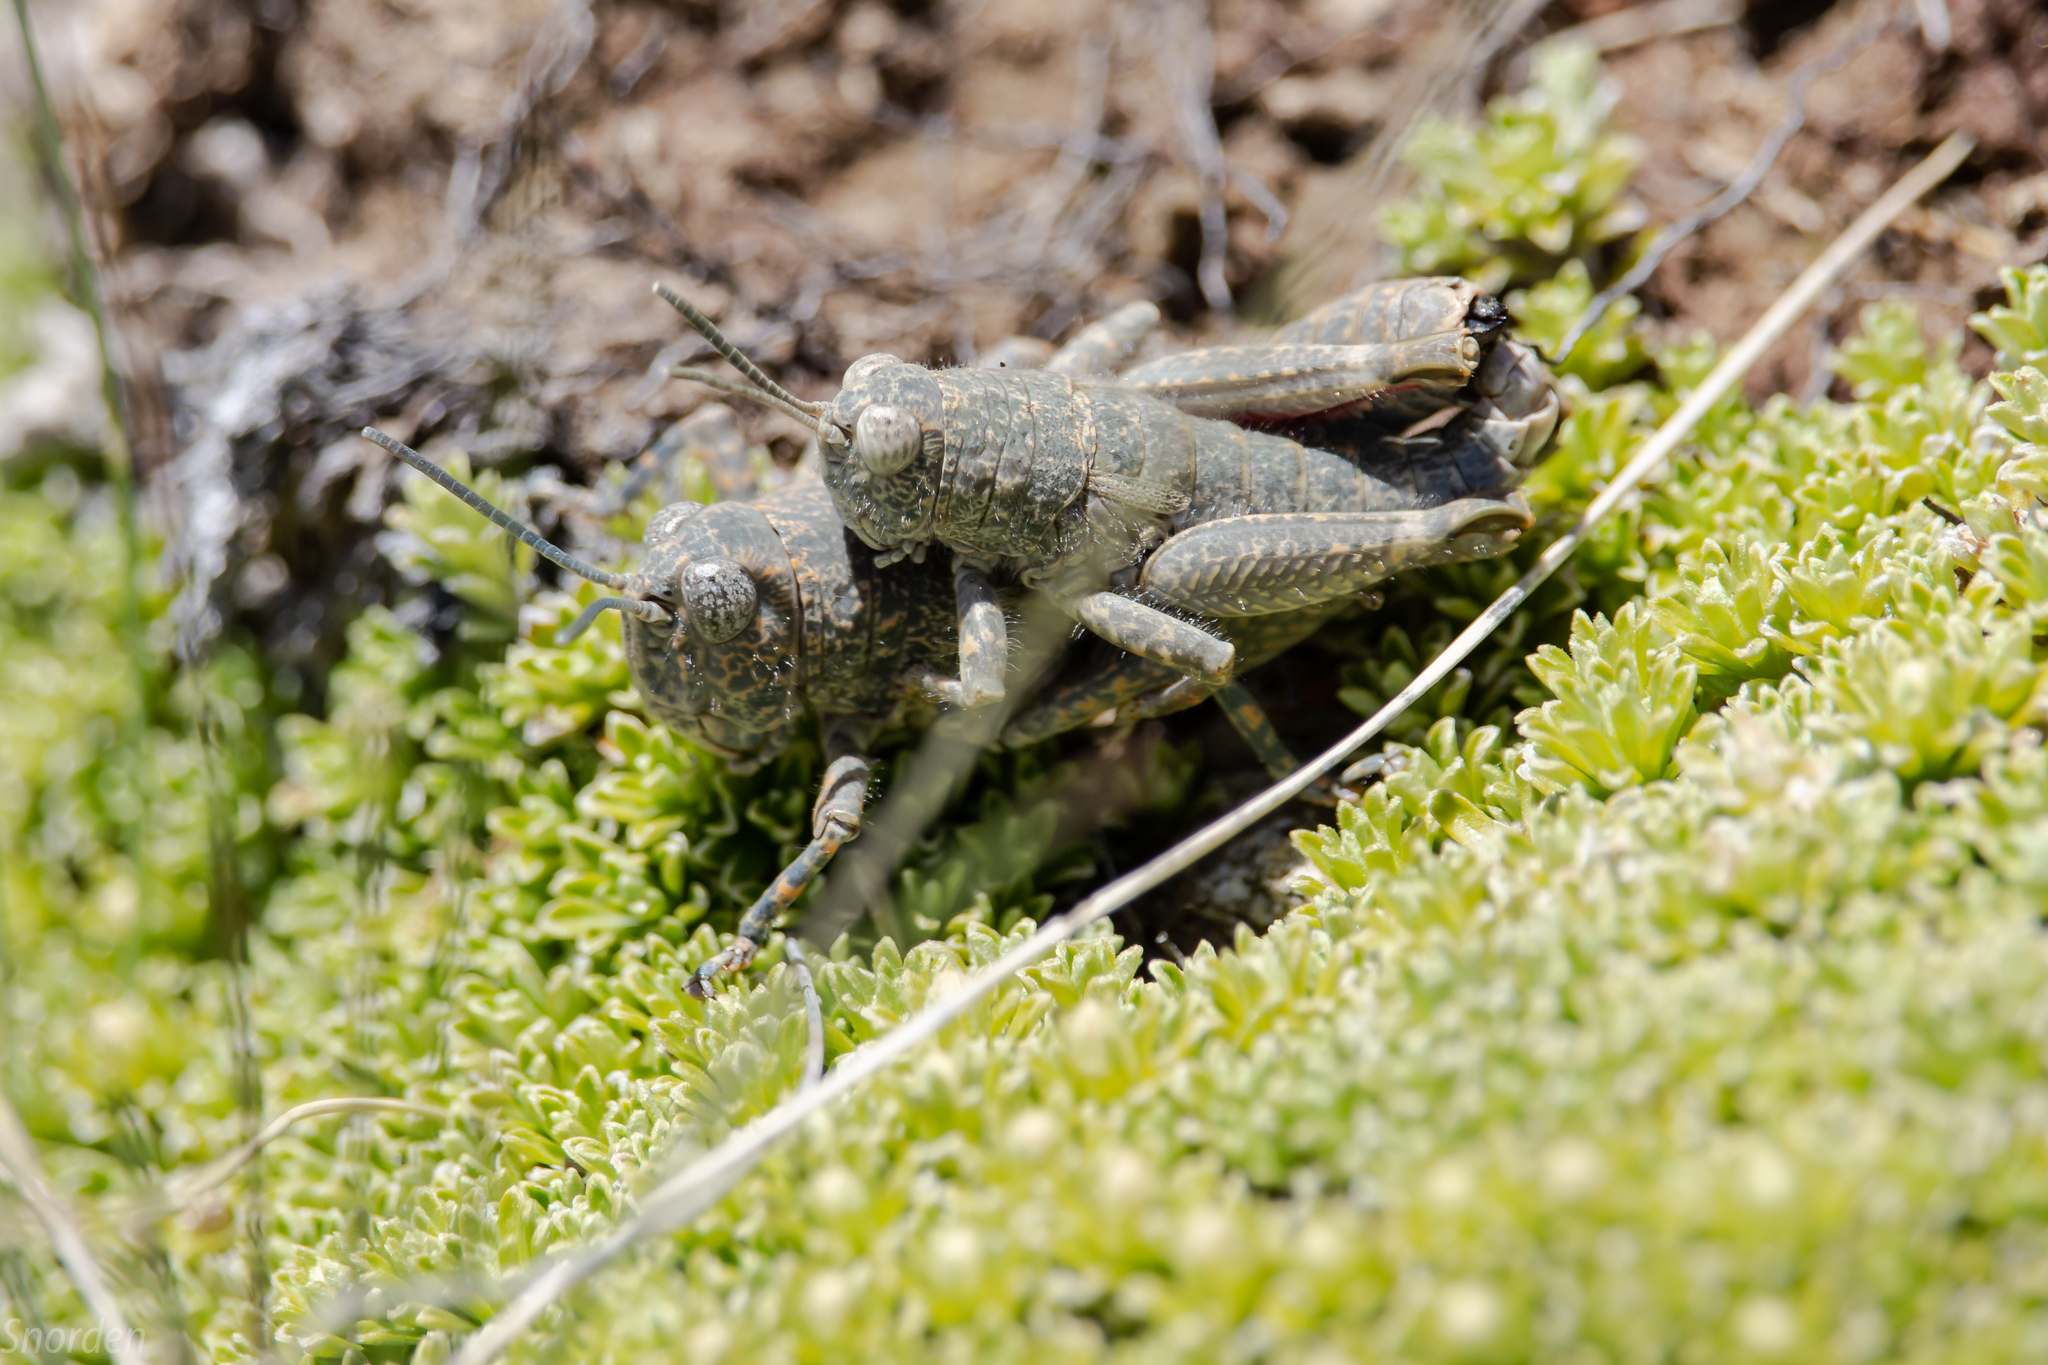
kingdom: Animalia
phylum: Arthropoda
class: Insecta
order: Orthoptera
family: Acrididae
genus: Sigaus
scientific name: Sigaus
